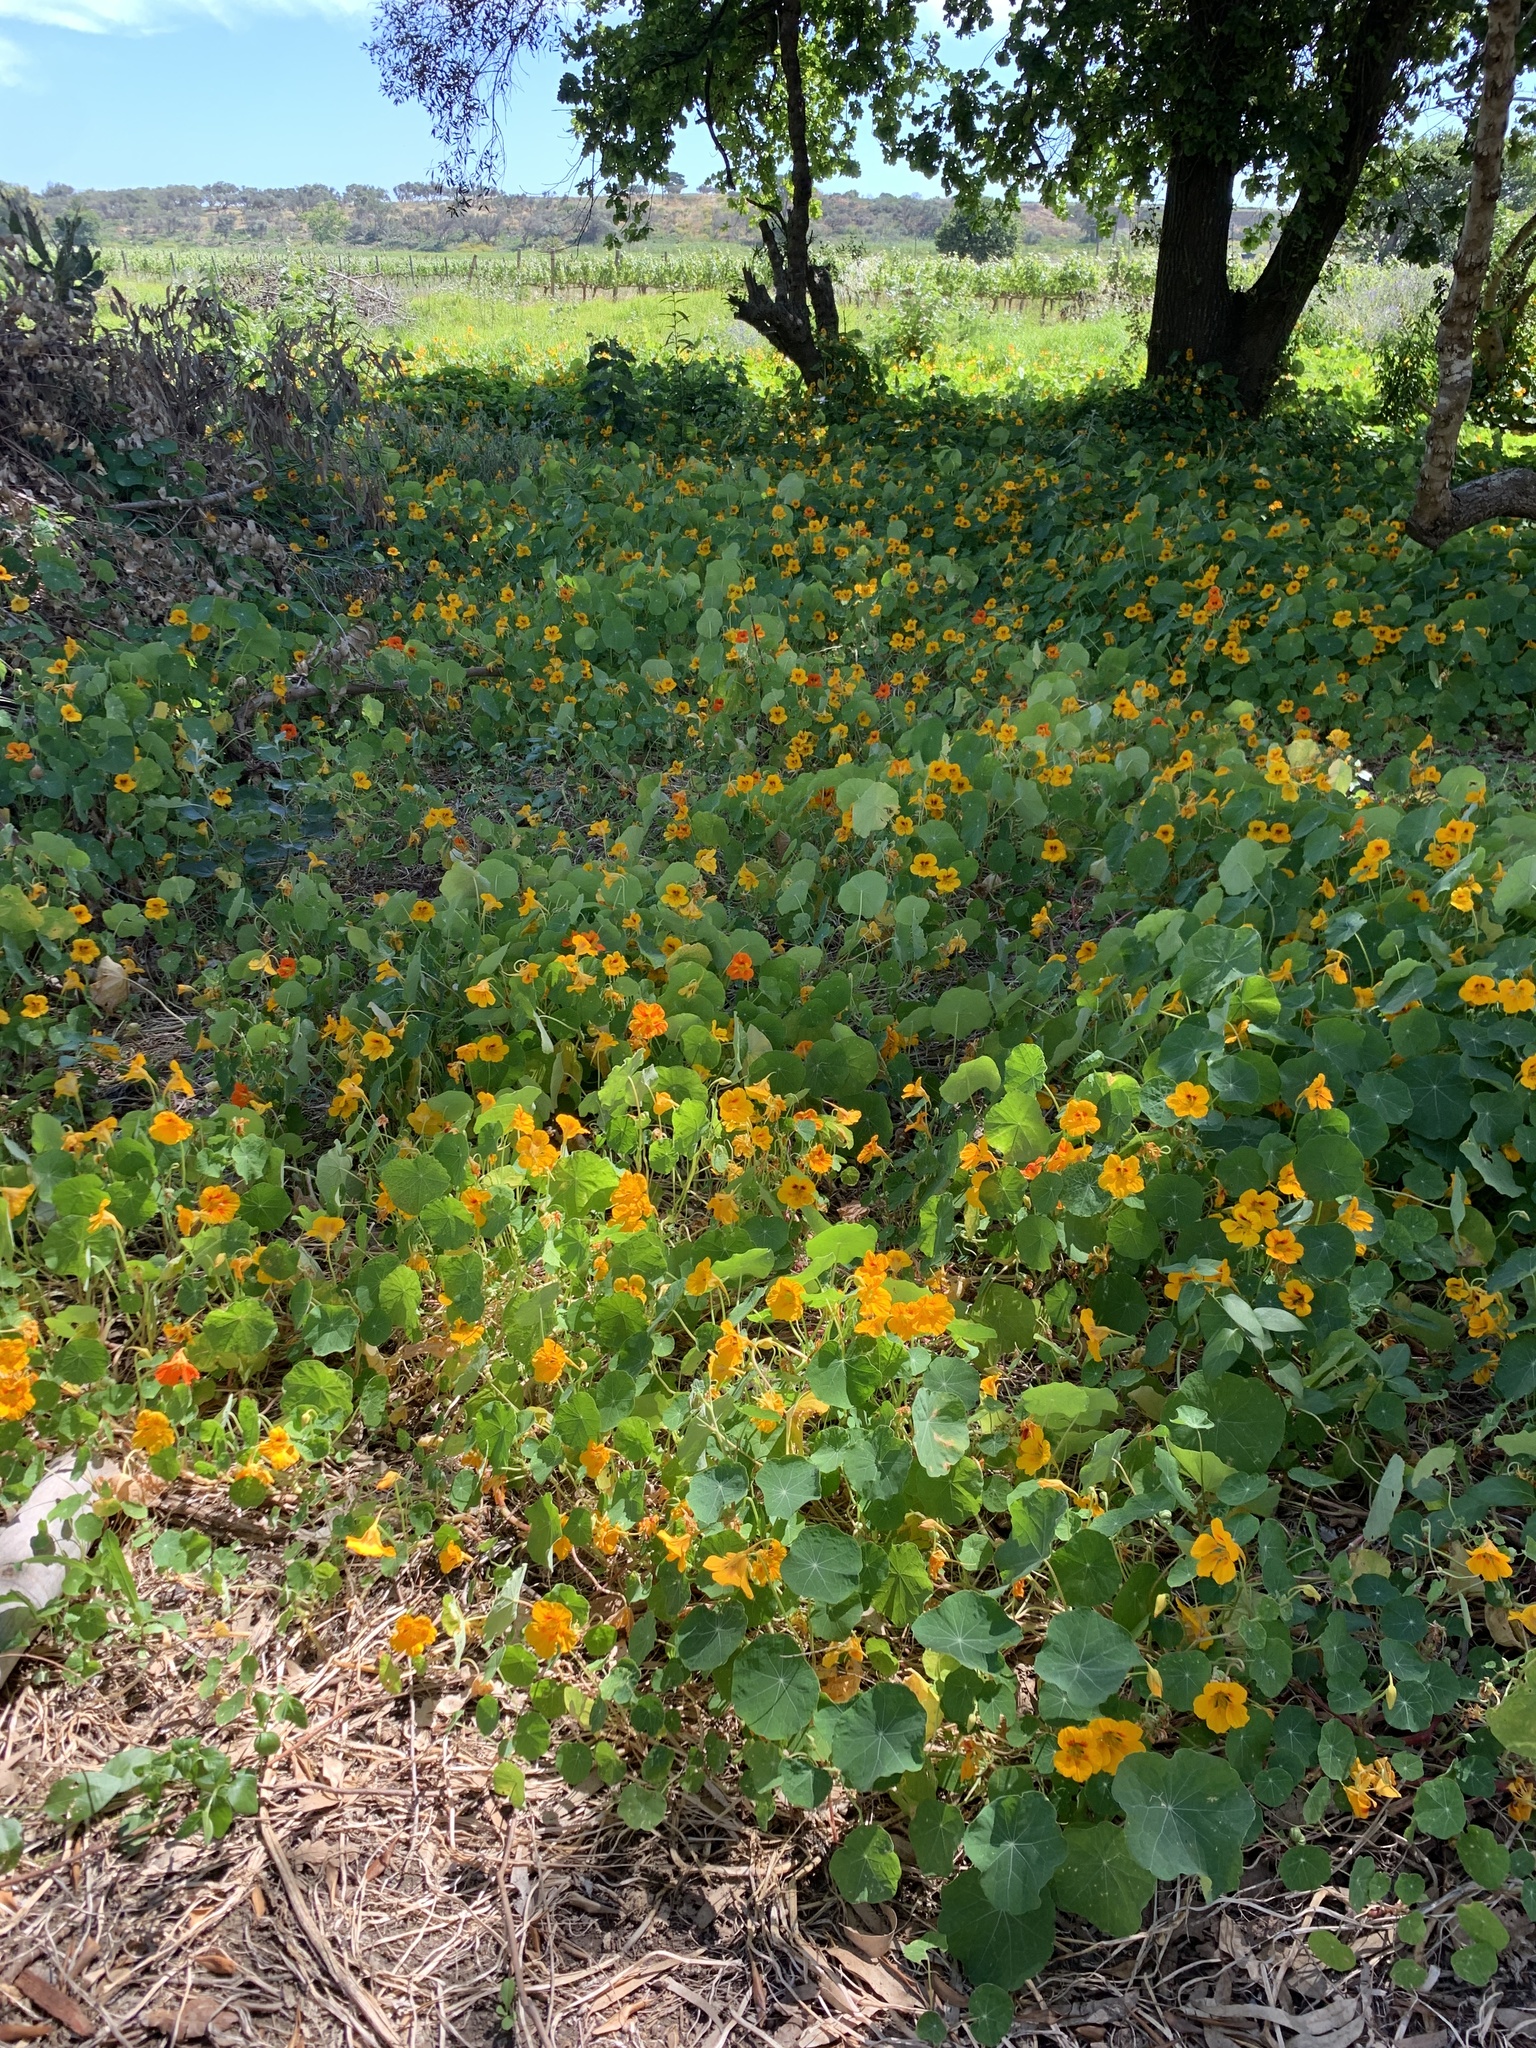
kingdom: Plantae
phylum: Tracheophyta
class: Magnoliopsida
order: Brassicales
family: Tropaeolaceae
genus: Tropaeolum
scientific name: Tropaeolum majus
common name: Nasturtium
